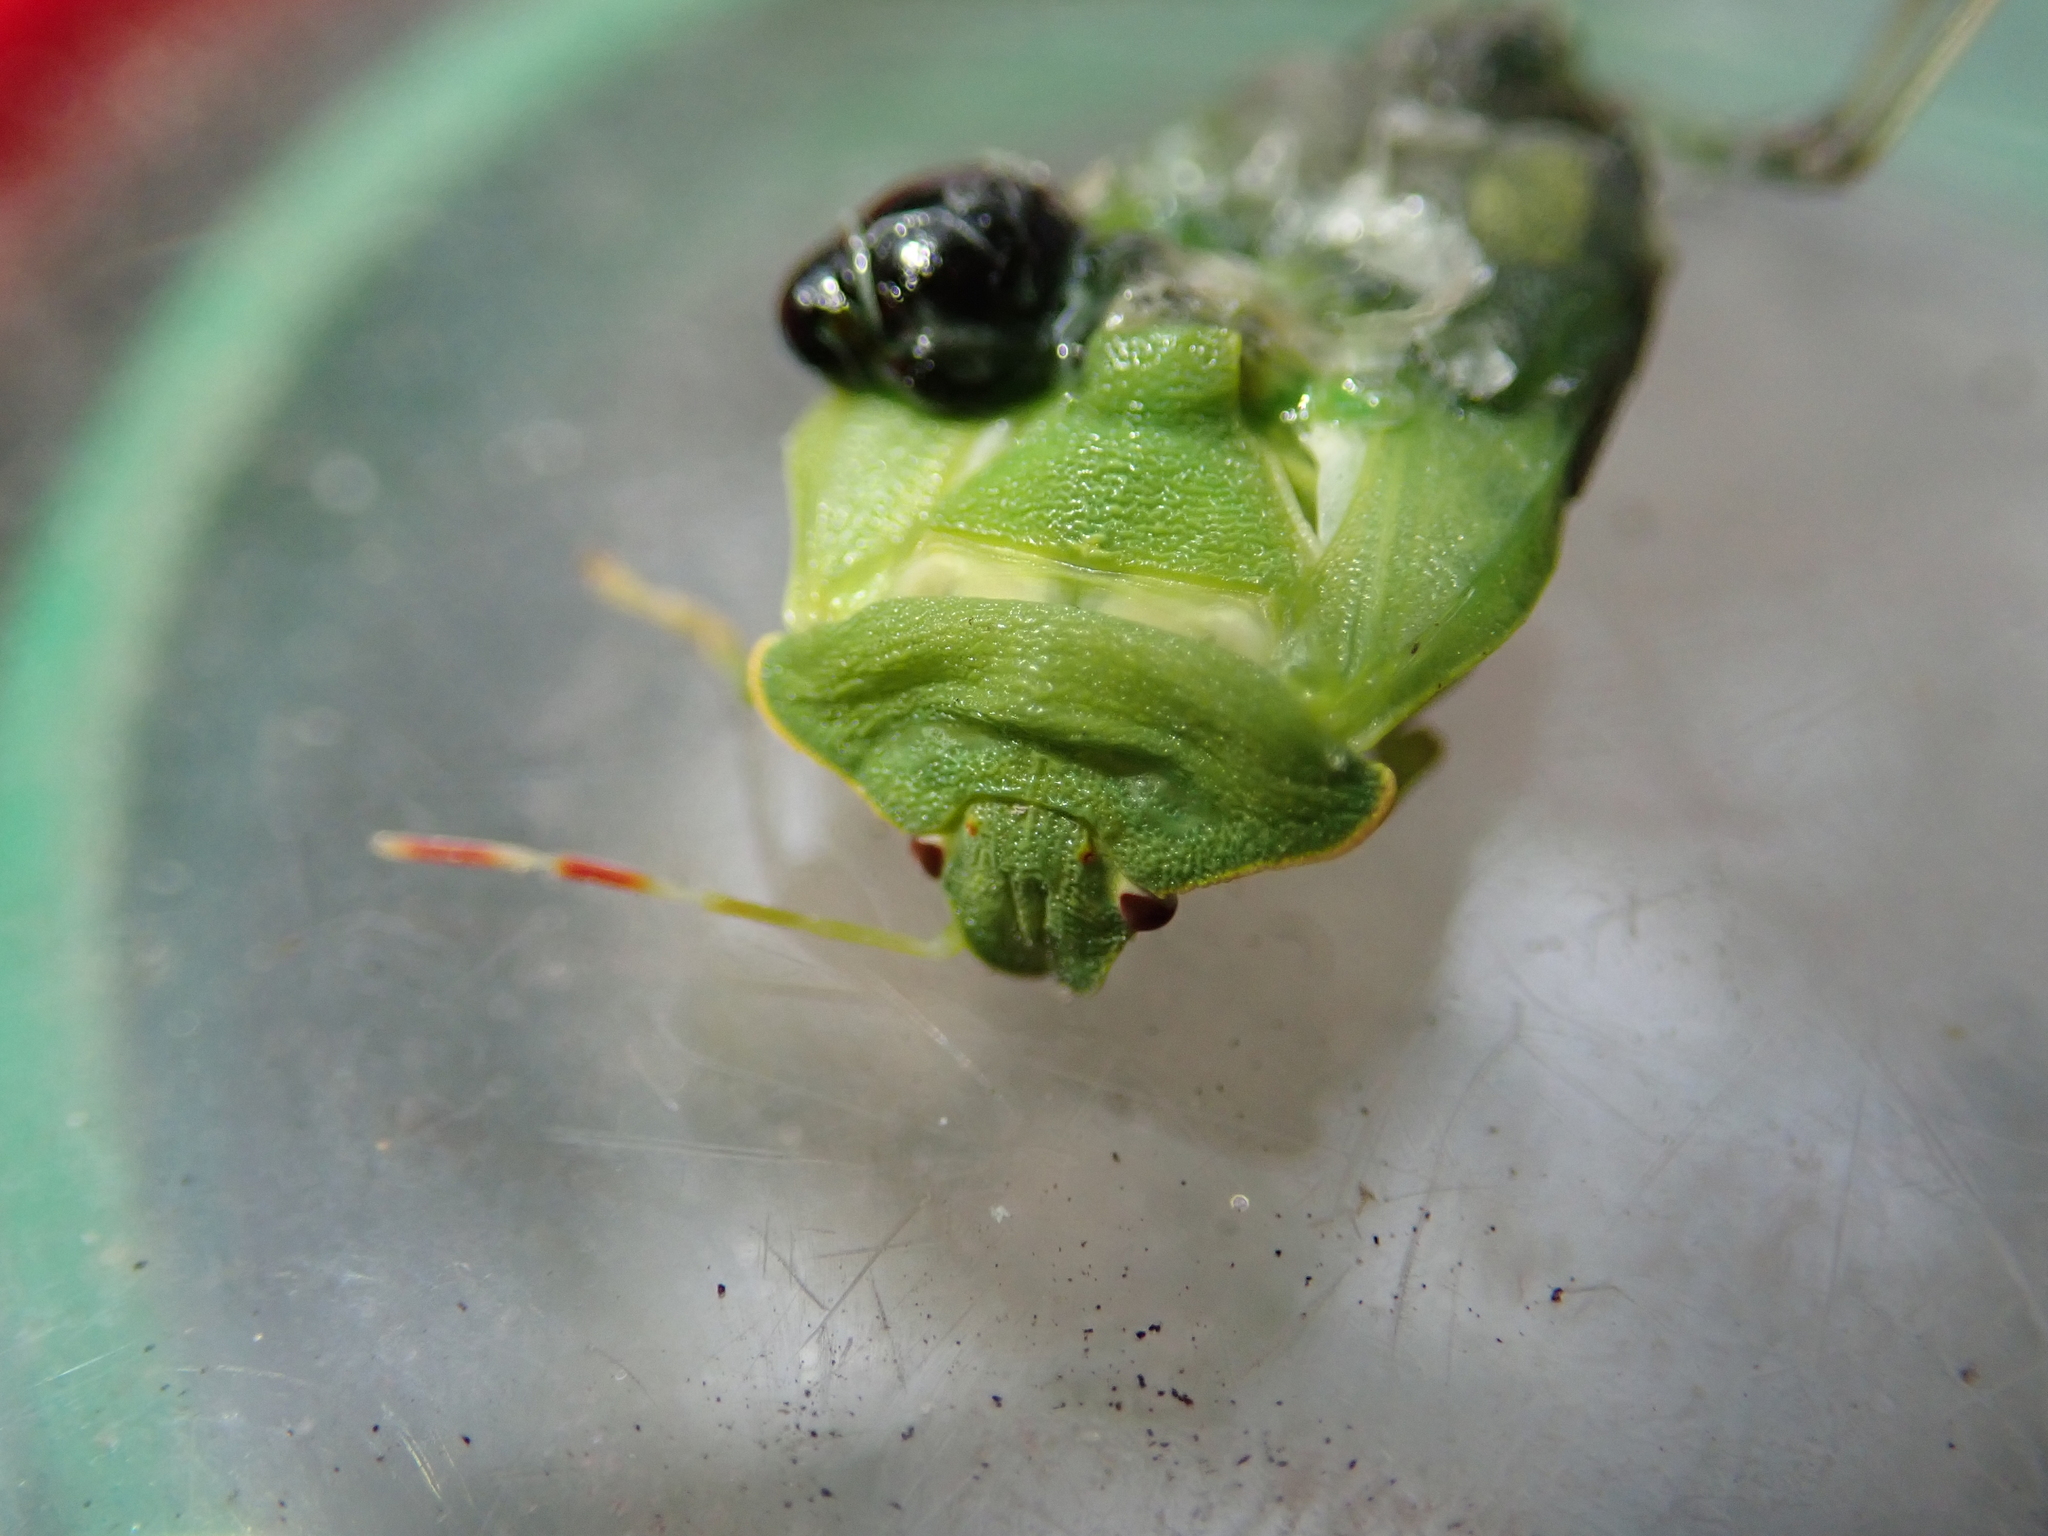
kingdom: Animalia
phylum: Arthropoda
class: Insecta
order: Hemiptera
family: Pentatomidae
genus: Palomena
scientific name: Palomena prasina
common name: Green shieldbug
